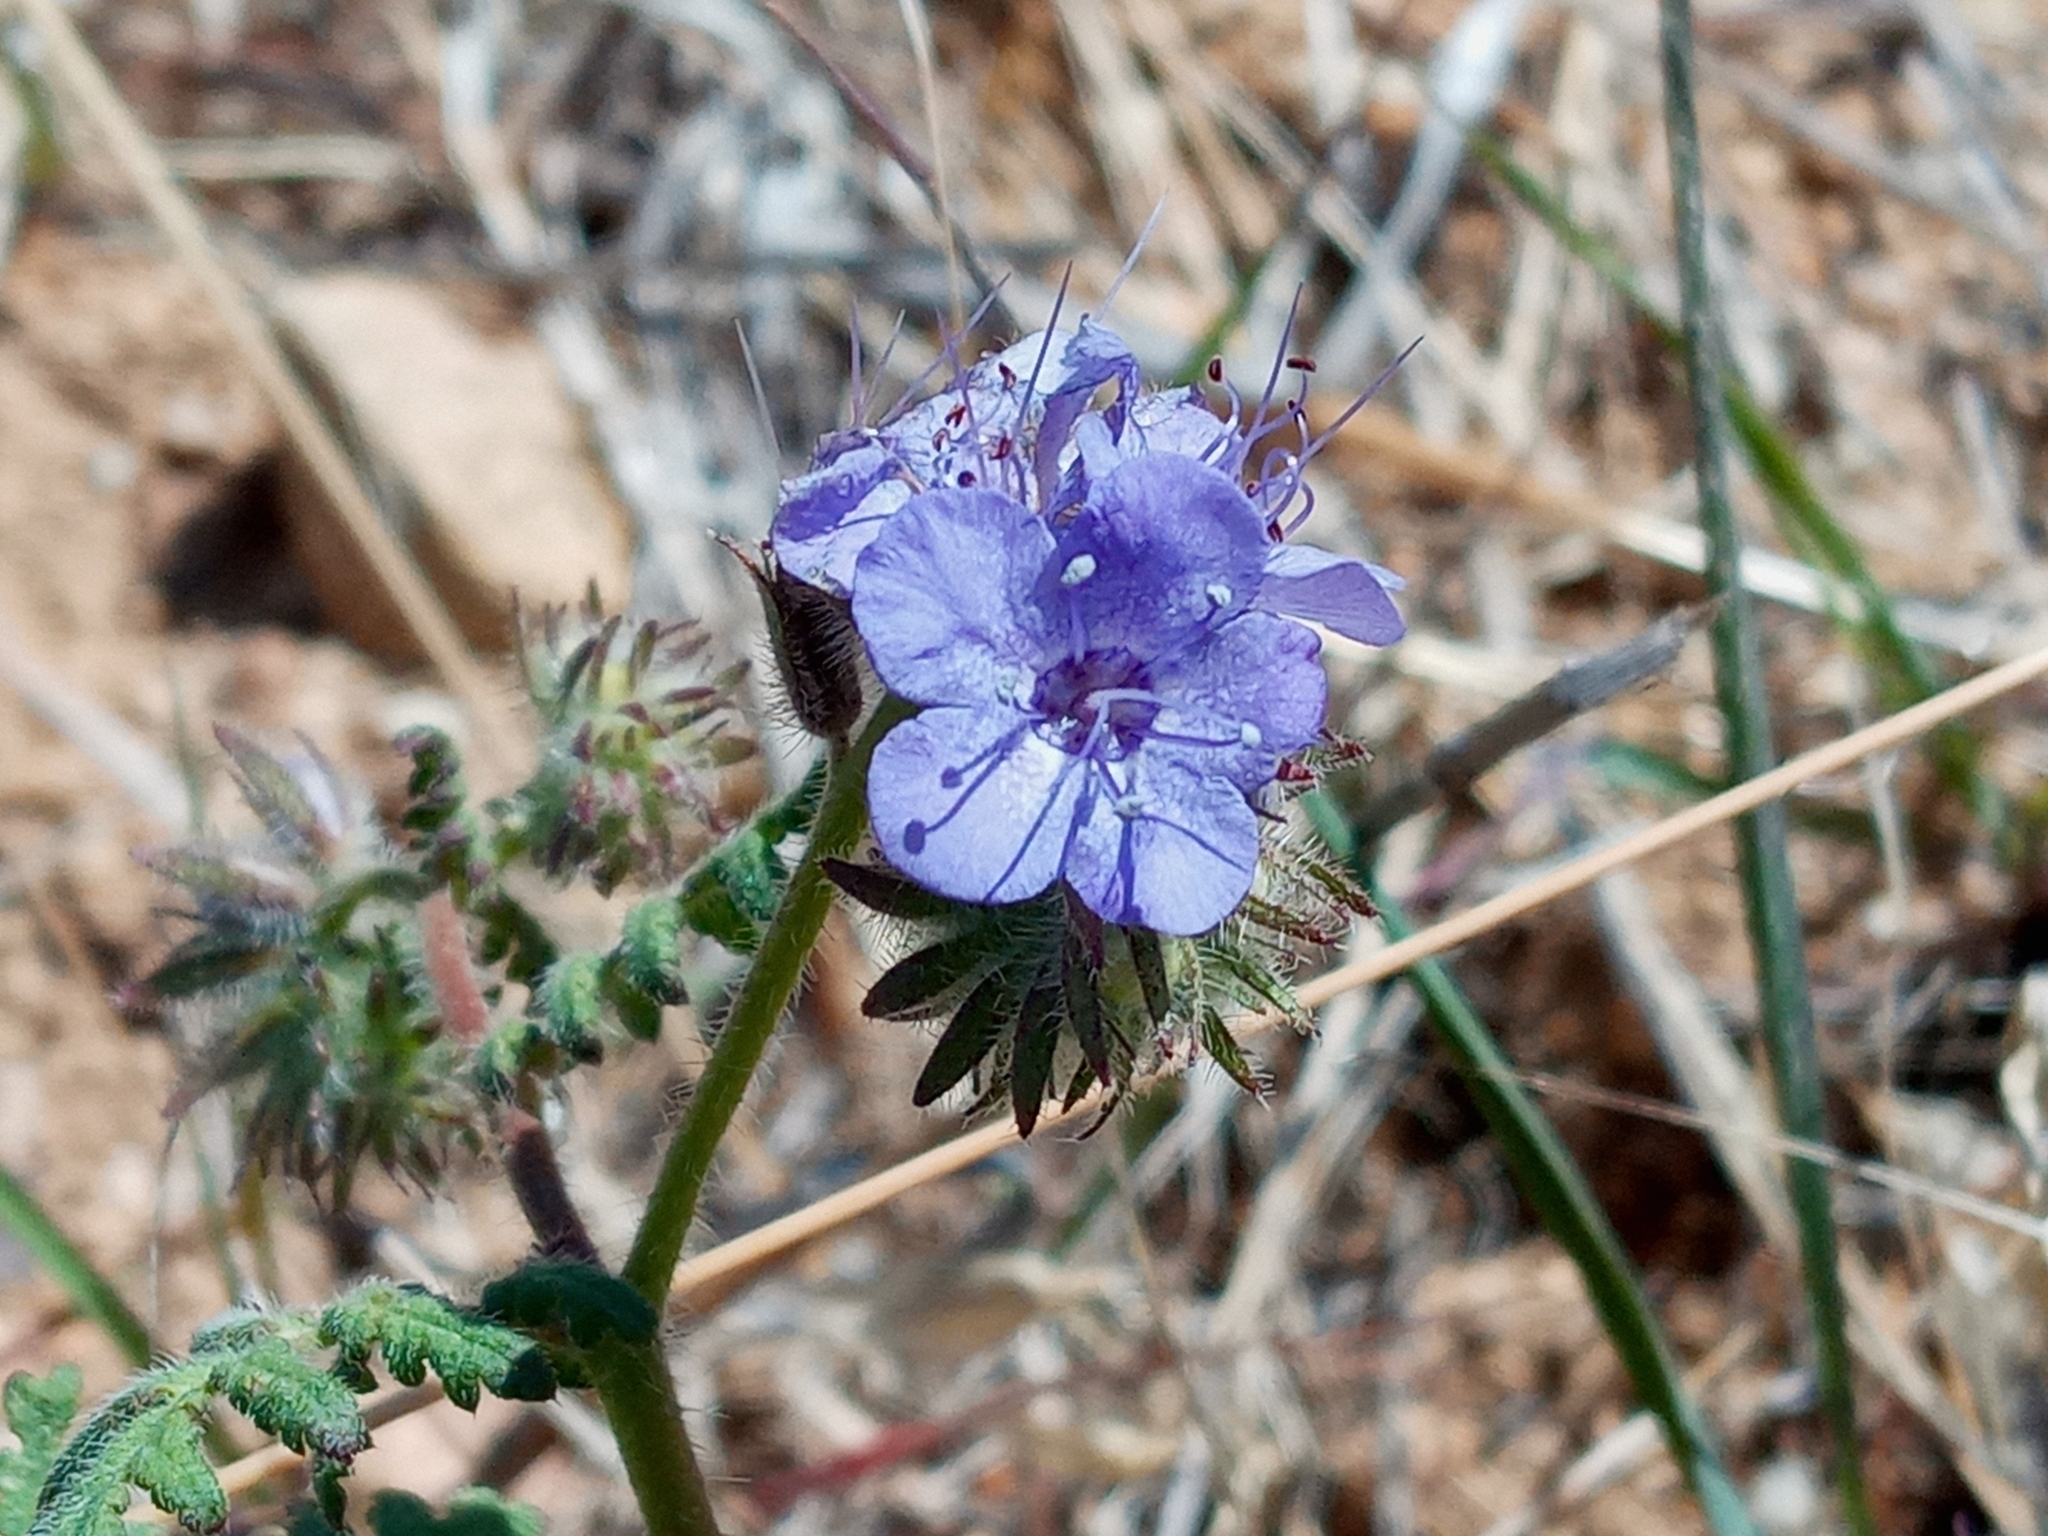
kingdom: Plantae
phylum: Tracheophyta
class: Magnoliopsida
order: Boraginales
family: Hydrophyllaceae
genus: Phacelia
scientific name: Phacelia distans
